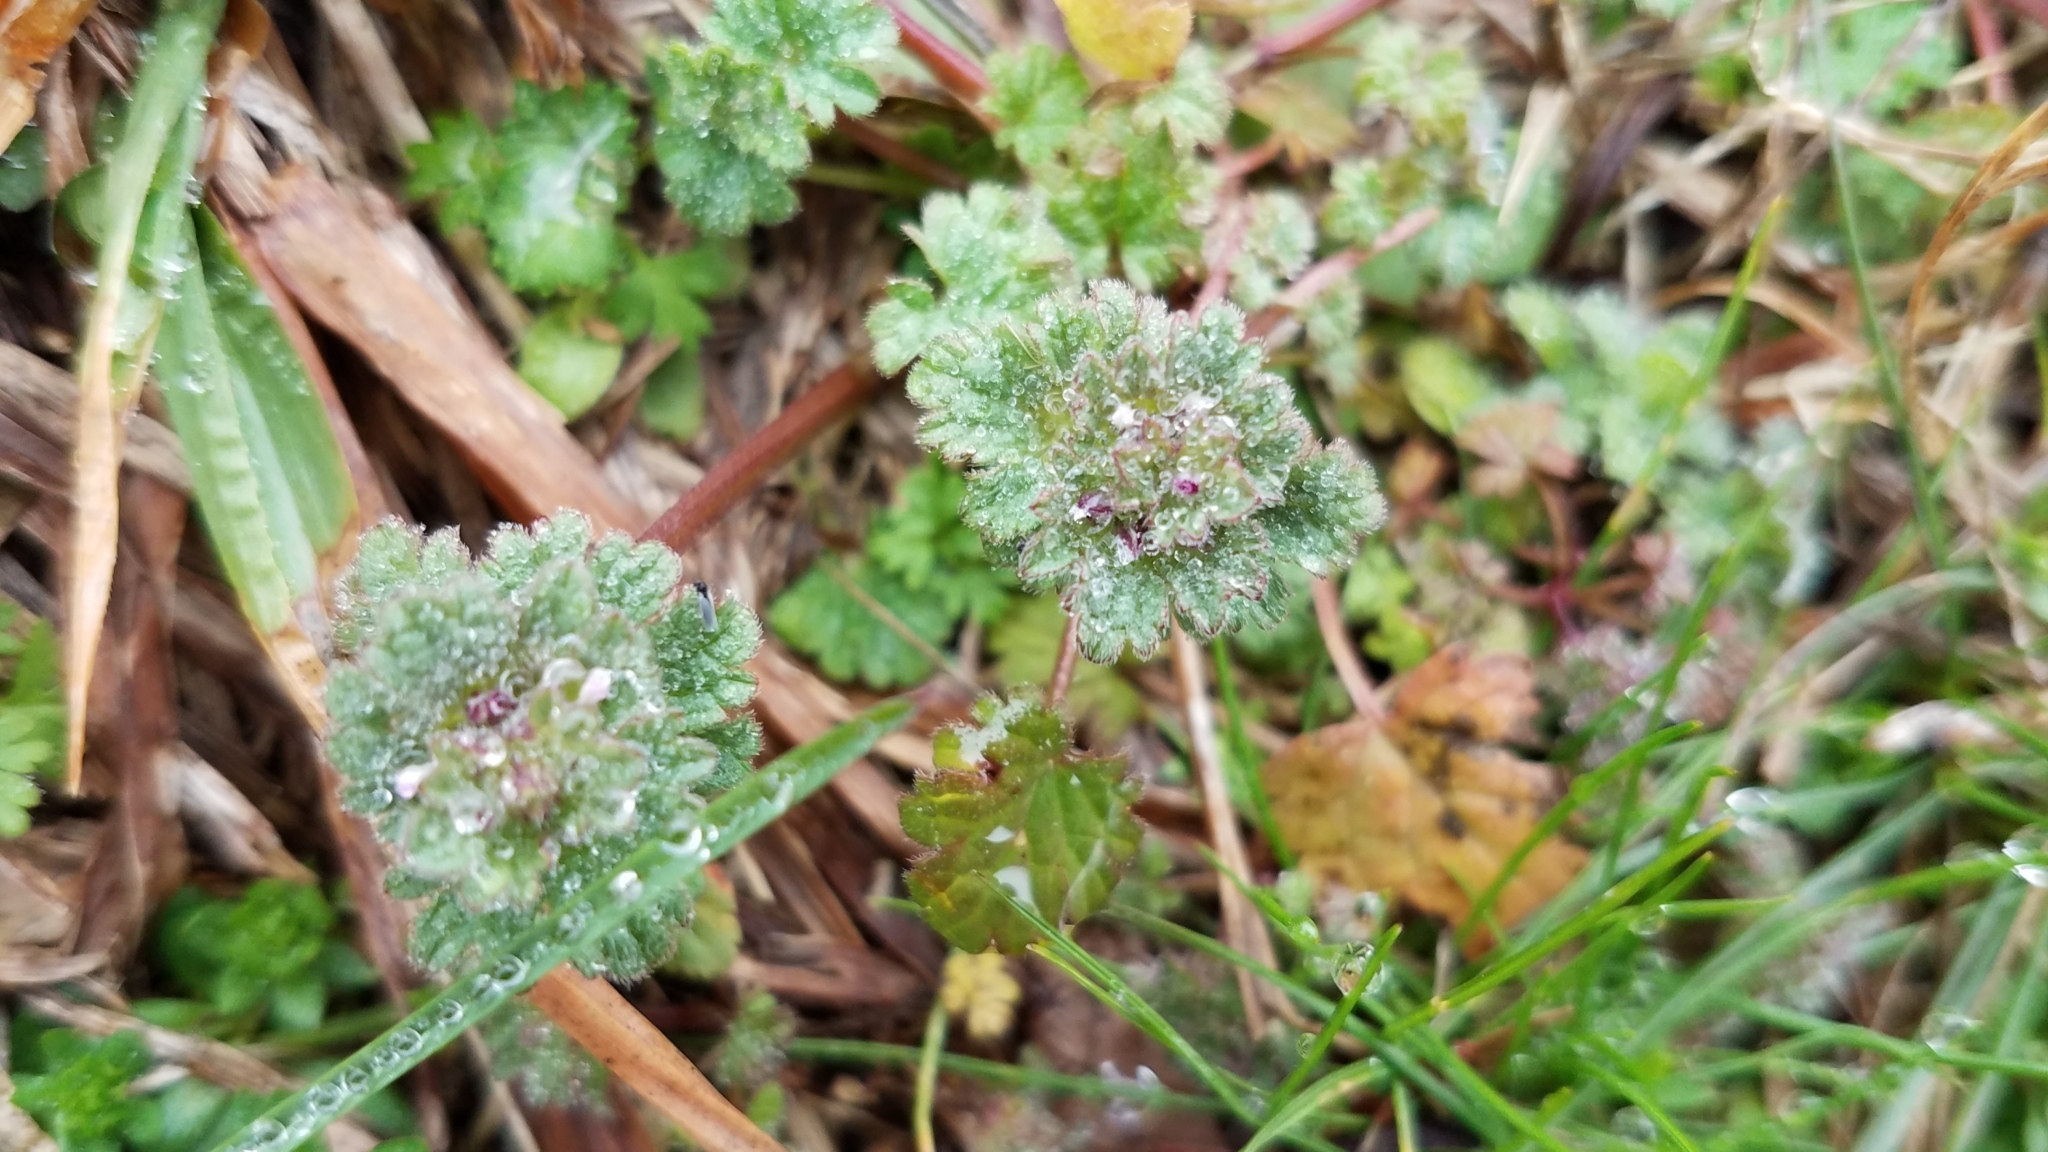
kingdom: Plantae
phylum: Tracheophyta
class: Magnoliopsida
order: Lamiales
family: Lamiaceae
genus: Lamium
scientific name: Lamium amplexicaule
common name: Henbit dead-nettle
